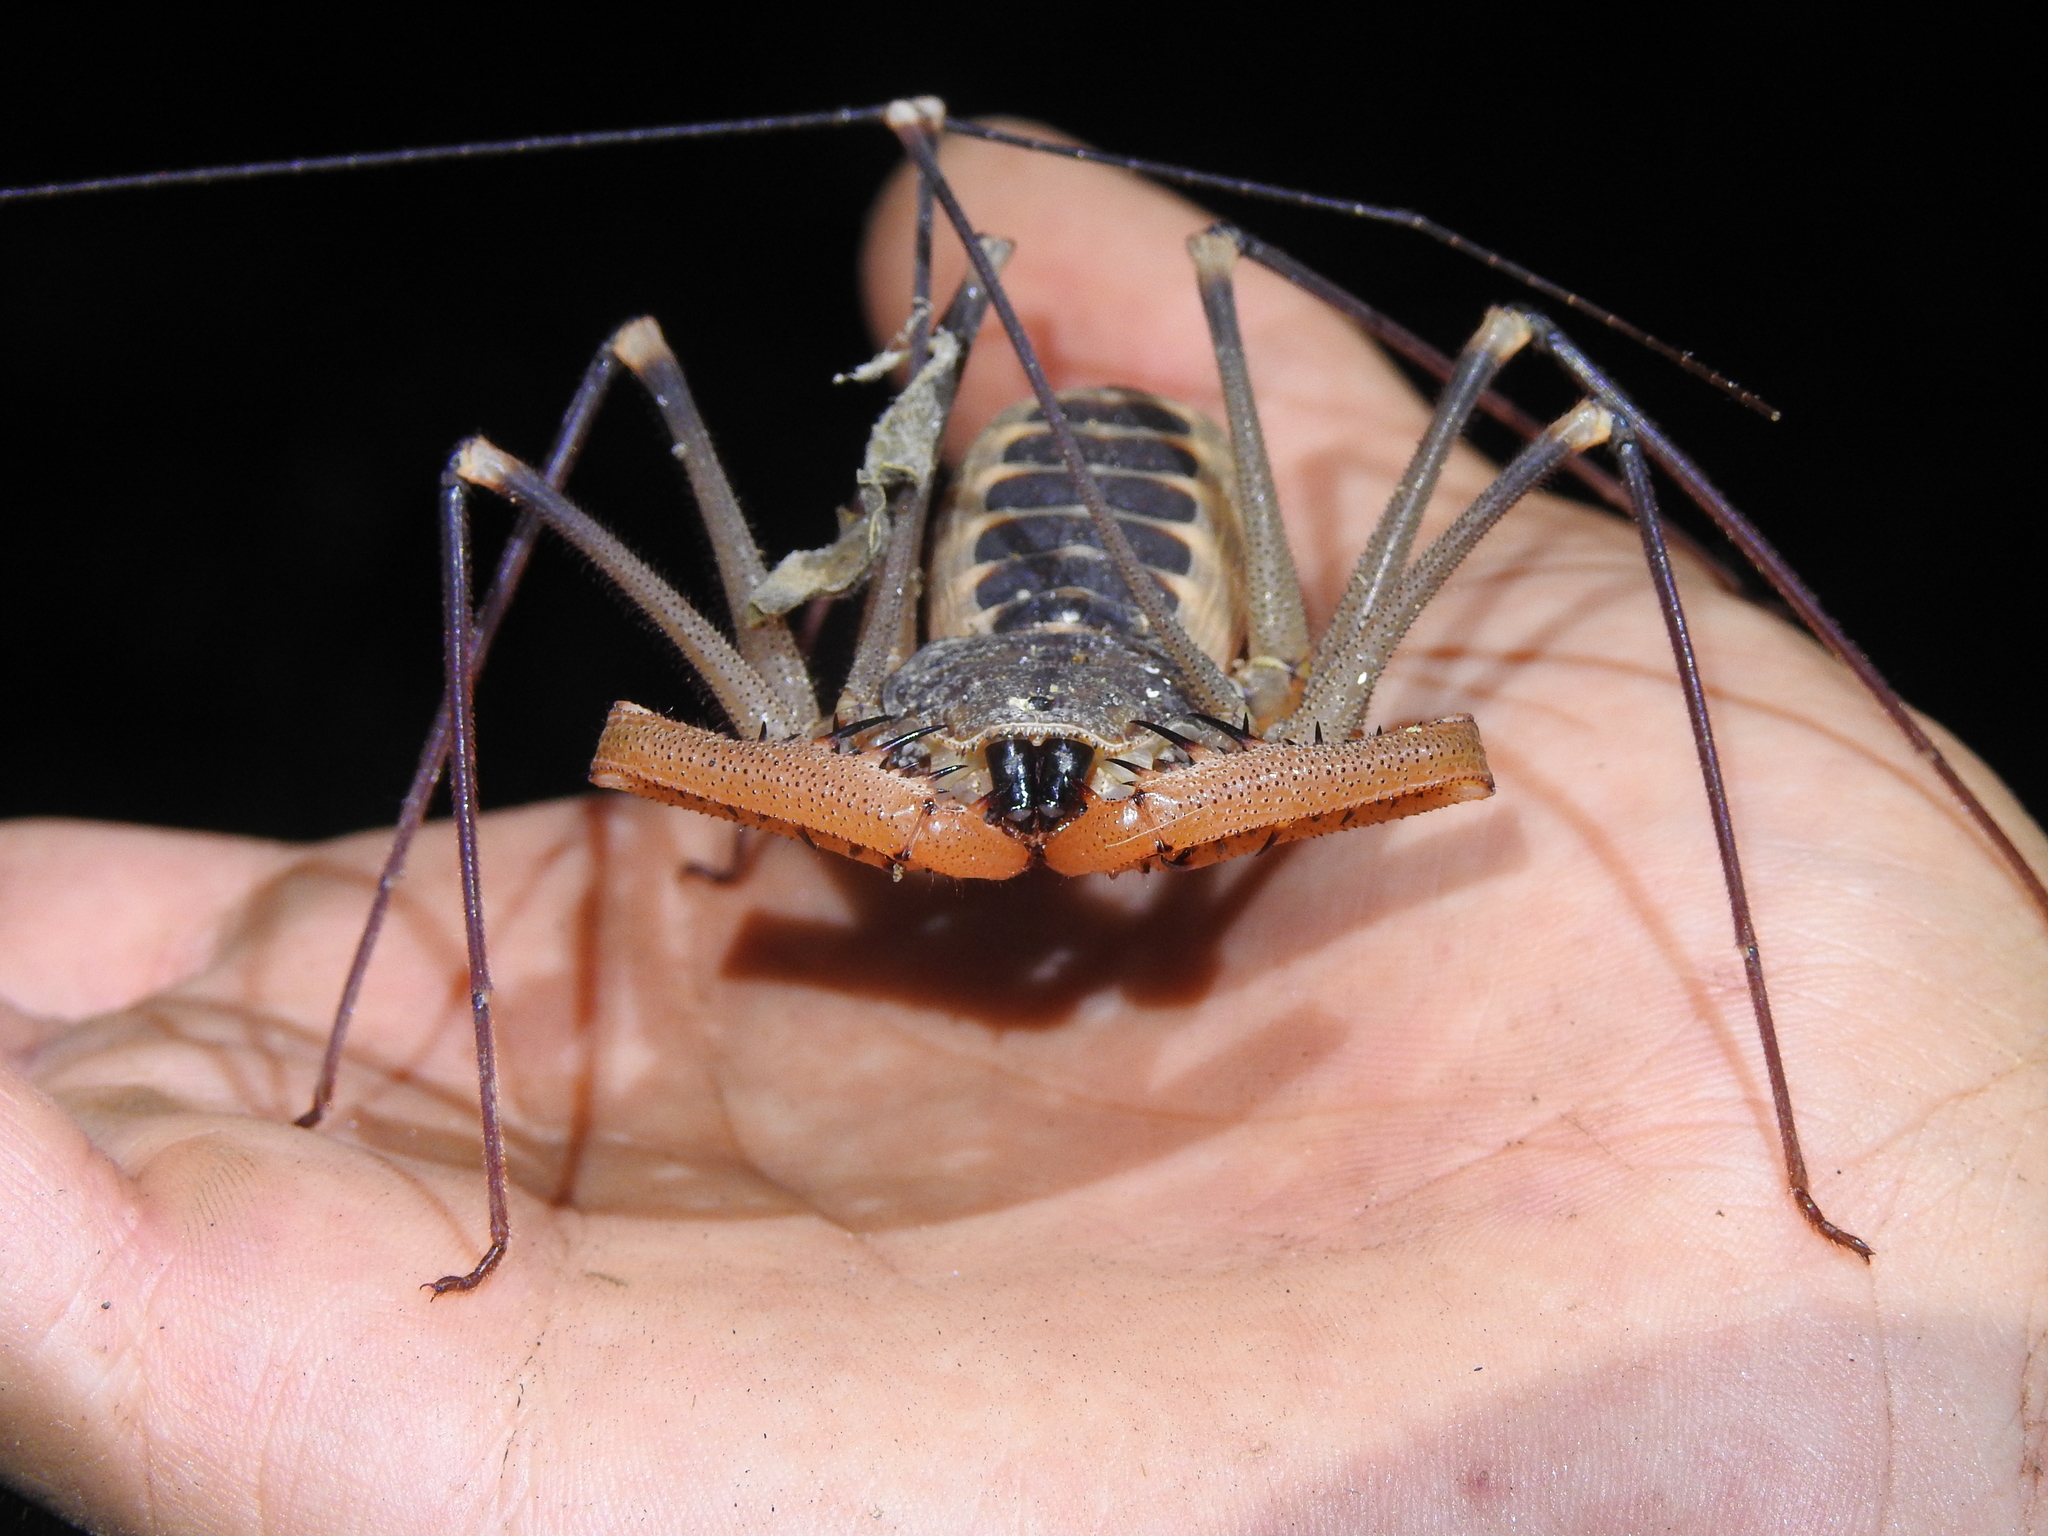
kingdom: Animalia
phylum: Arthropoda
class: Arachnida
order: Amblypygi
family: Phrynidae
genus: Acanthophrynus
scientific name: Acanthophrynus coronatus
